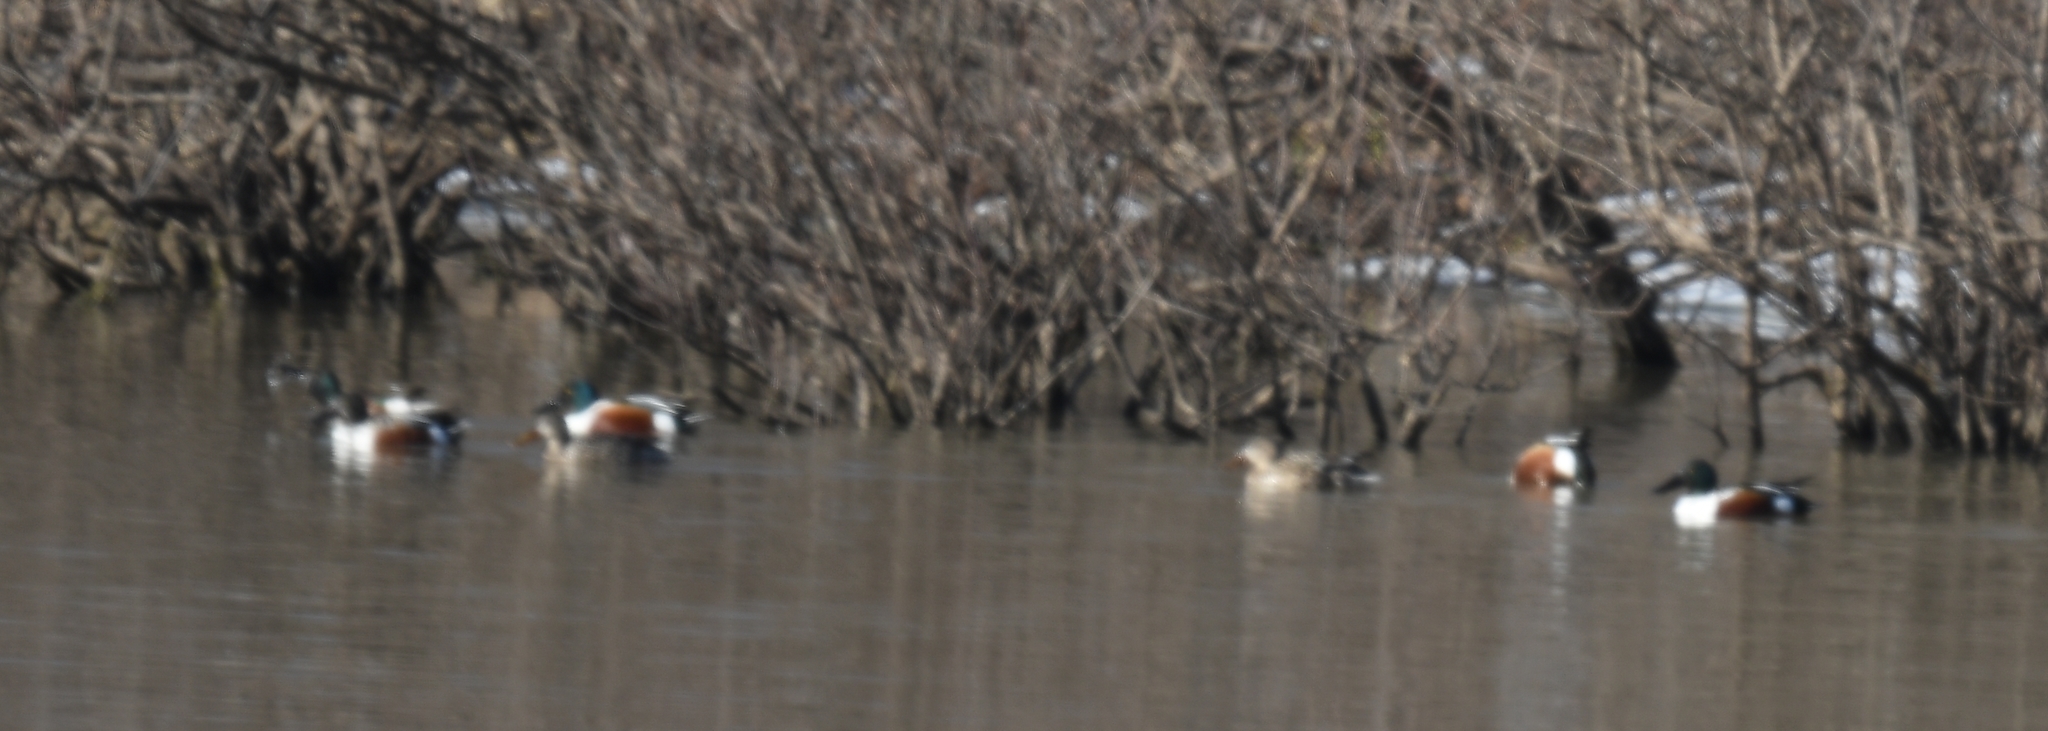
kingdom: Animalia
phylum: Chordata
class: Aves
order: Anseriformes
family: Anatidae
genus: Spatula
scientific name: Spatula clypeata
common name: Northern shoveler
